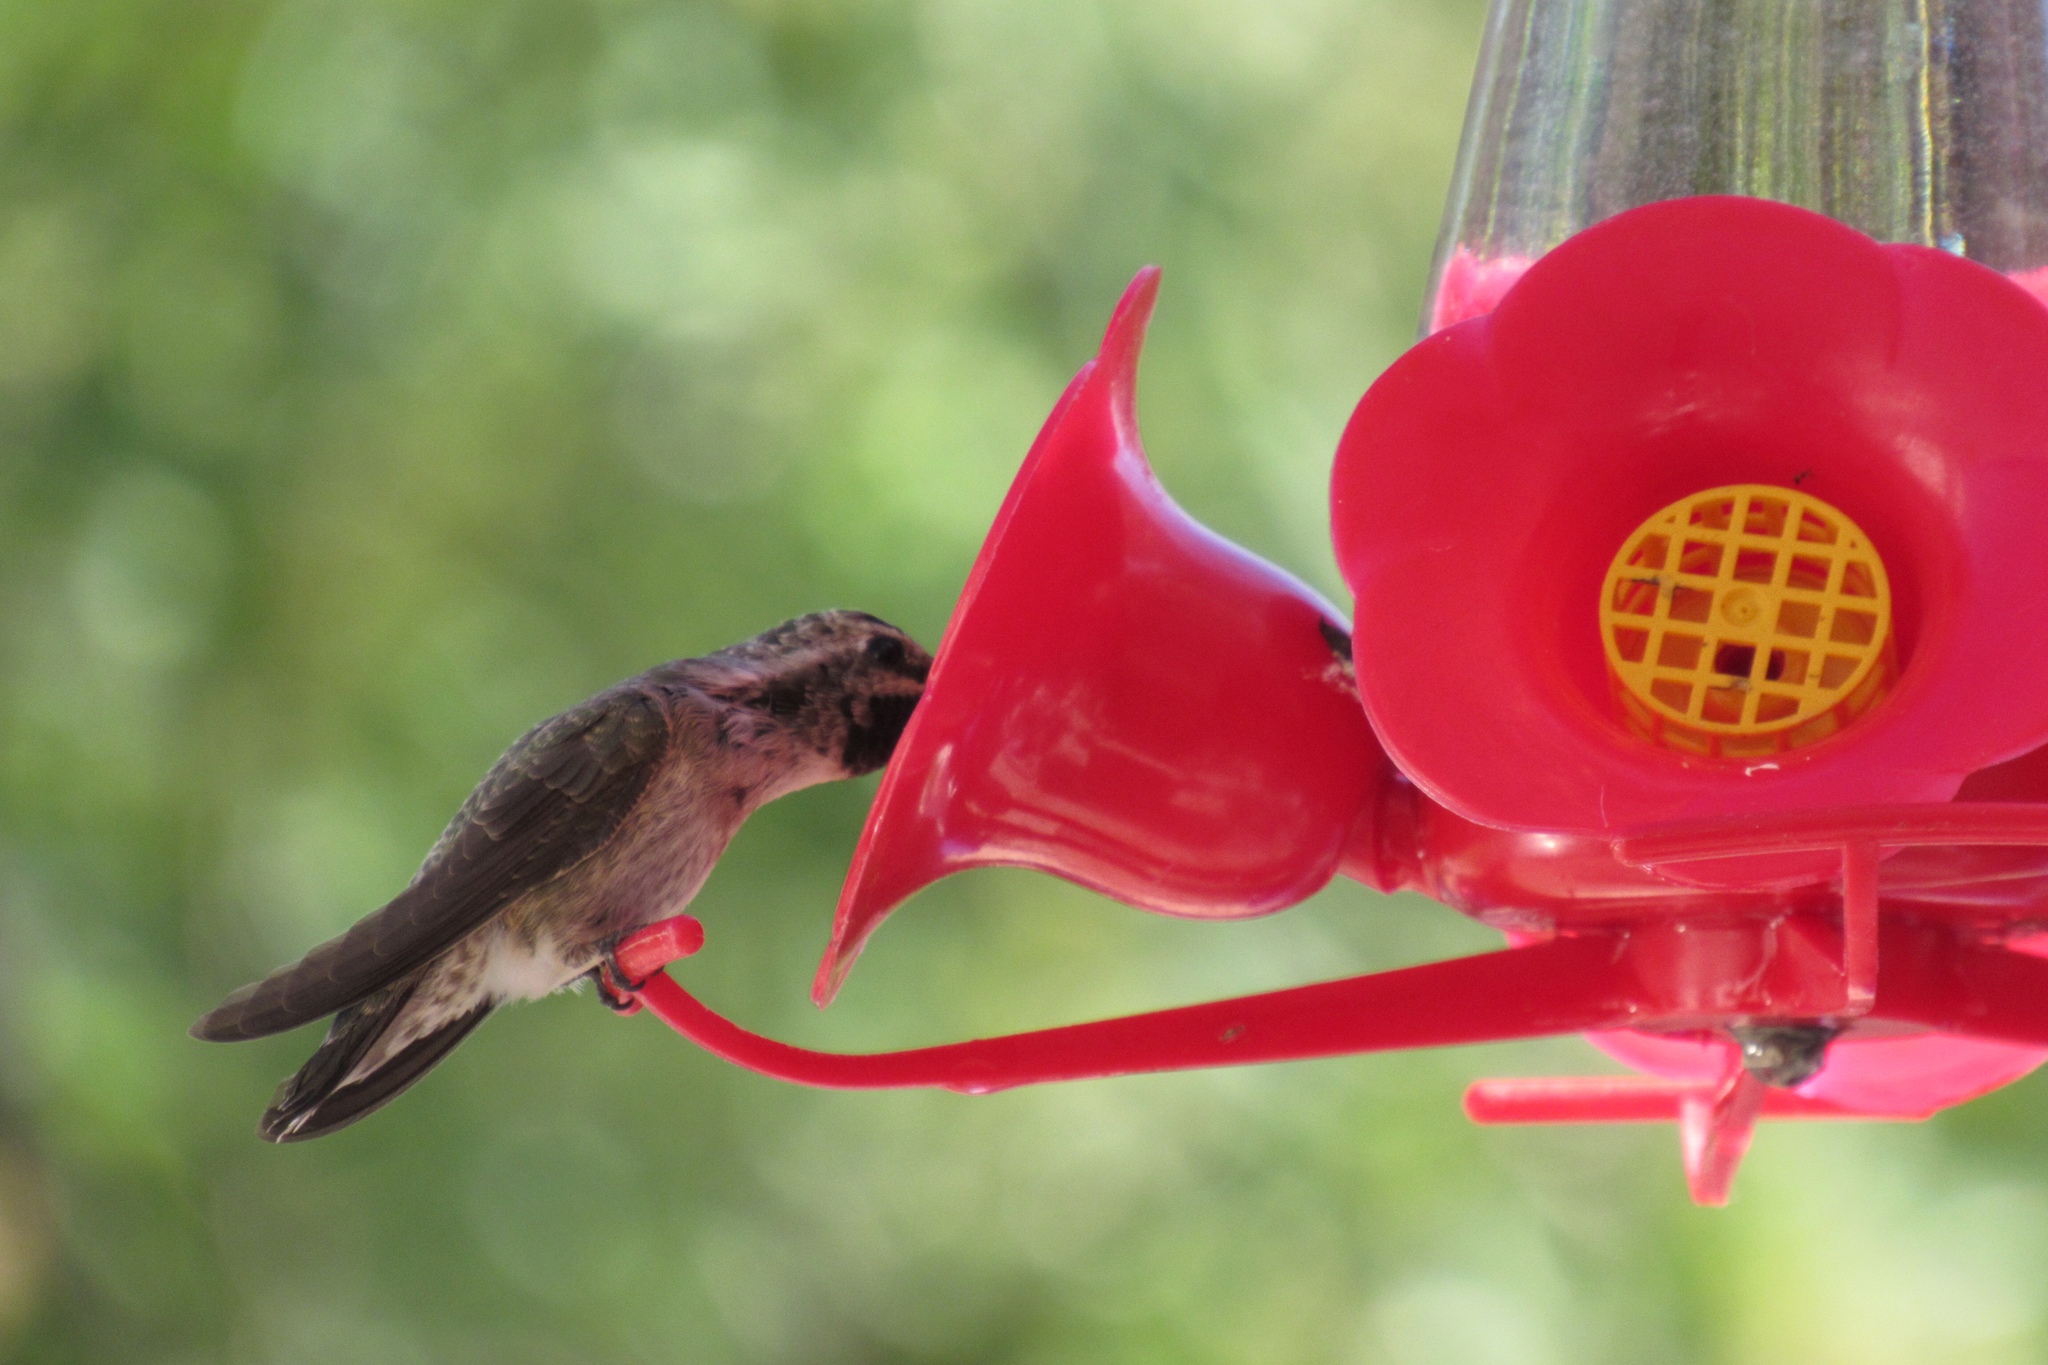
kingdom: Animalia
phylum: Chordata
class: Aves
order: Apodiformes
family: Trochilidae
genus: Calypte
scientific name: Calypte costae
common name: Costa's hummingbird
